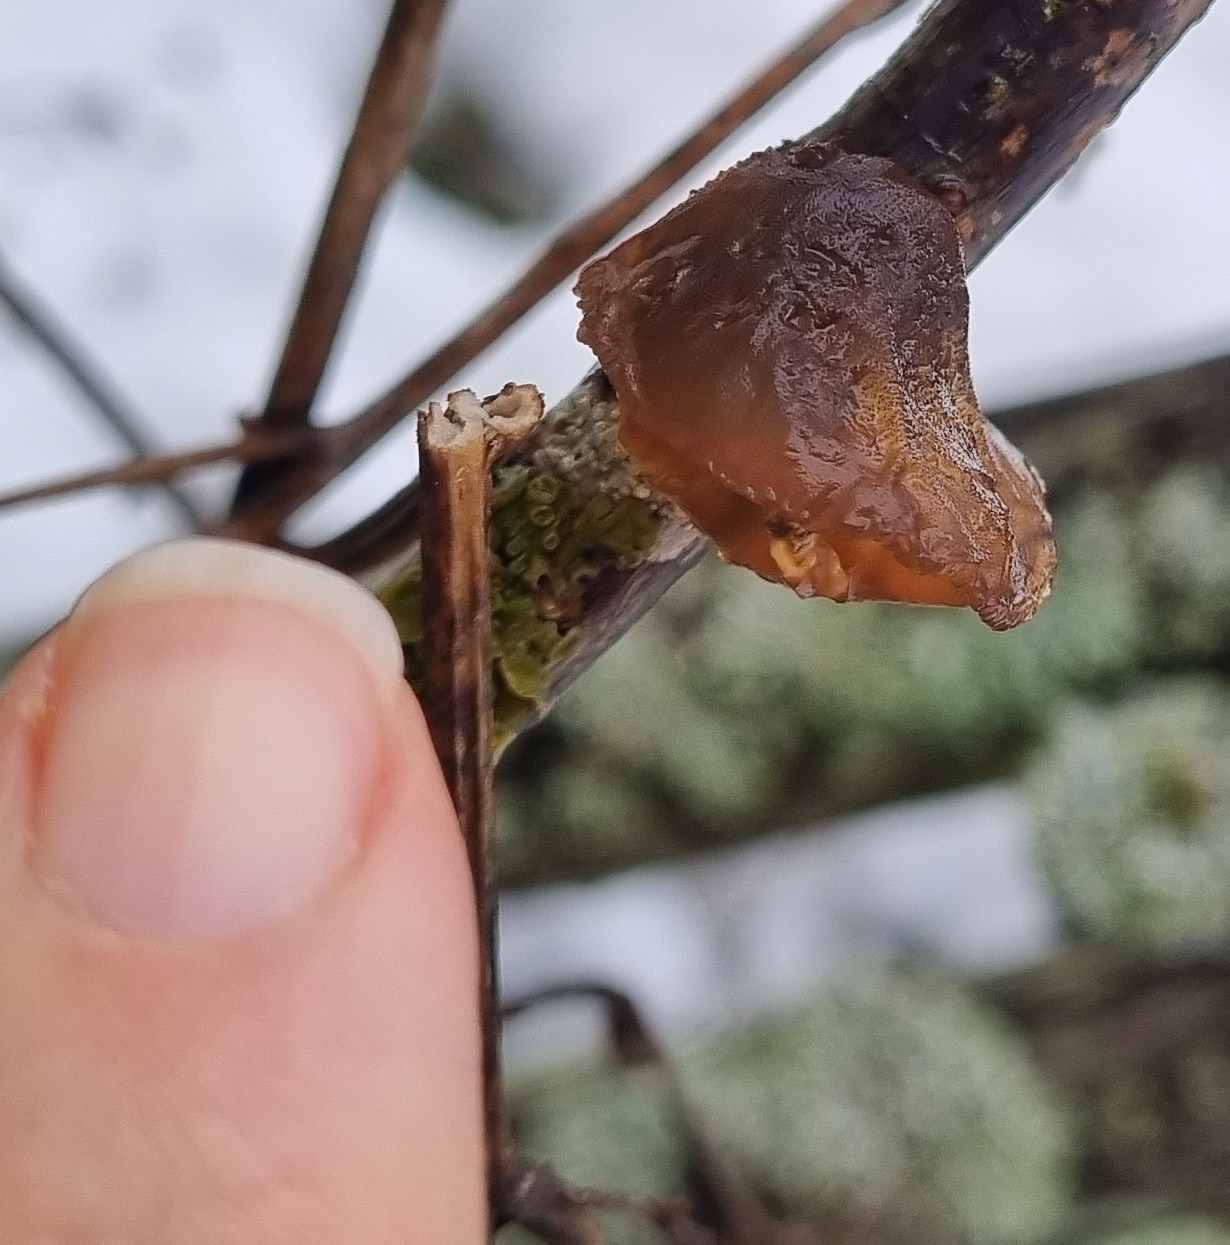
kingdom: Fungi
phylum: Basidiomycota
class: Agaricomycetes
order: Auriculariales
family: Auriculariaceae
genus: Exidia
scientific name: Exidia recisa
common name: Amber jelly
